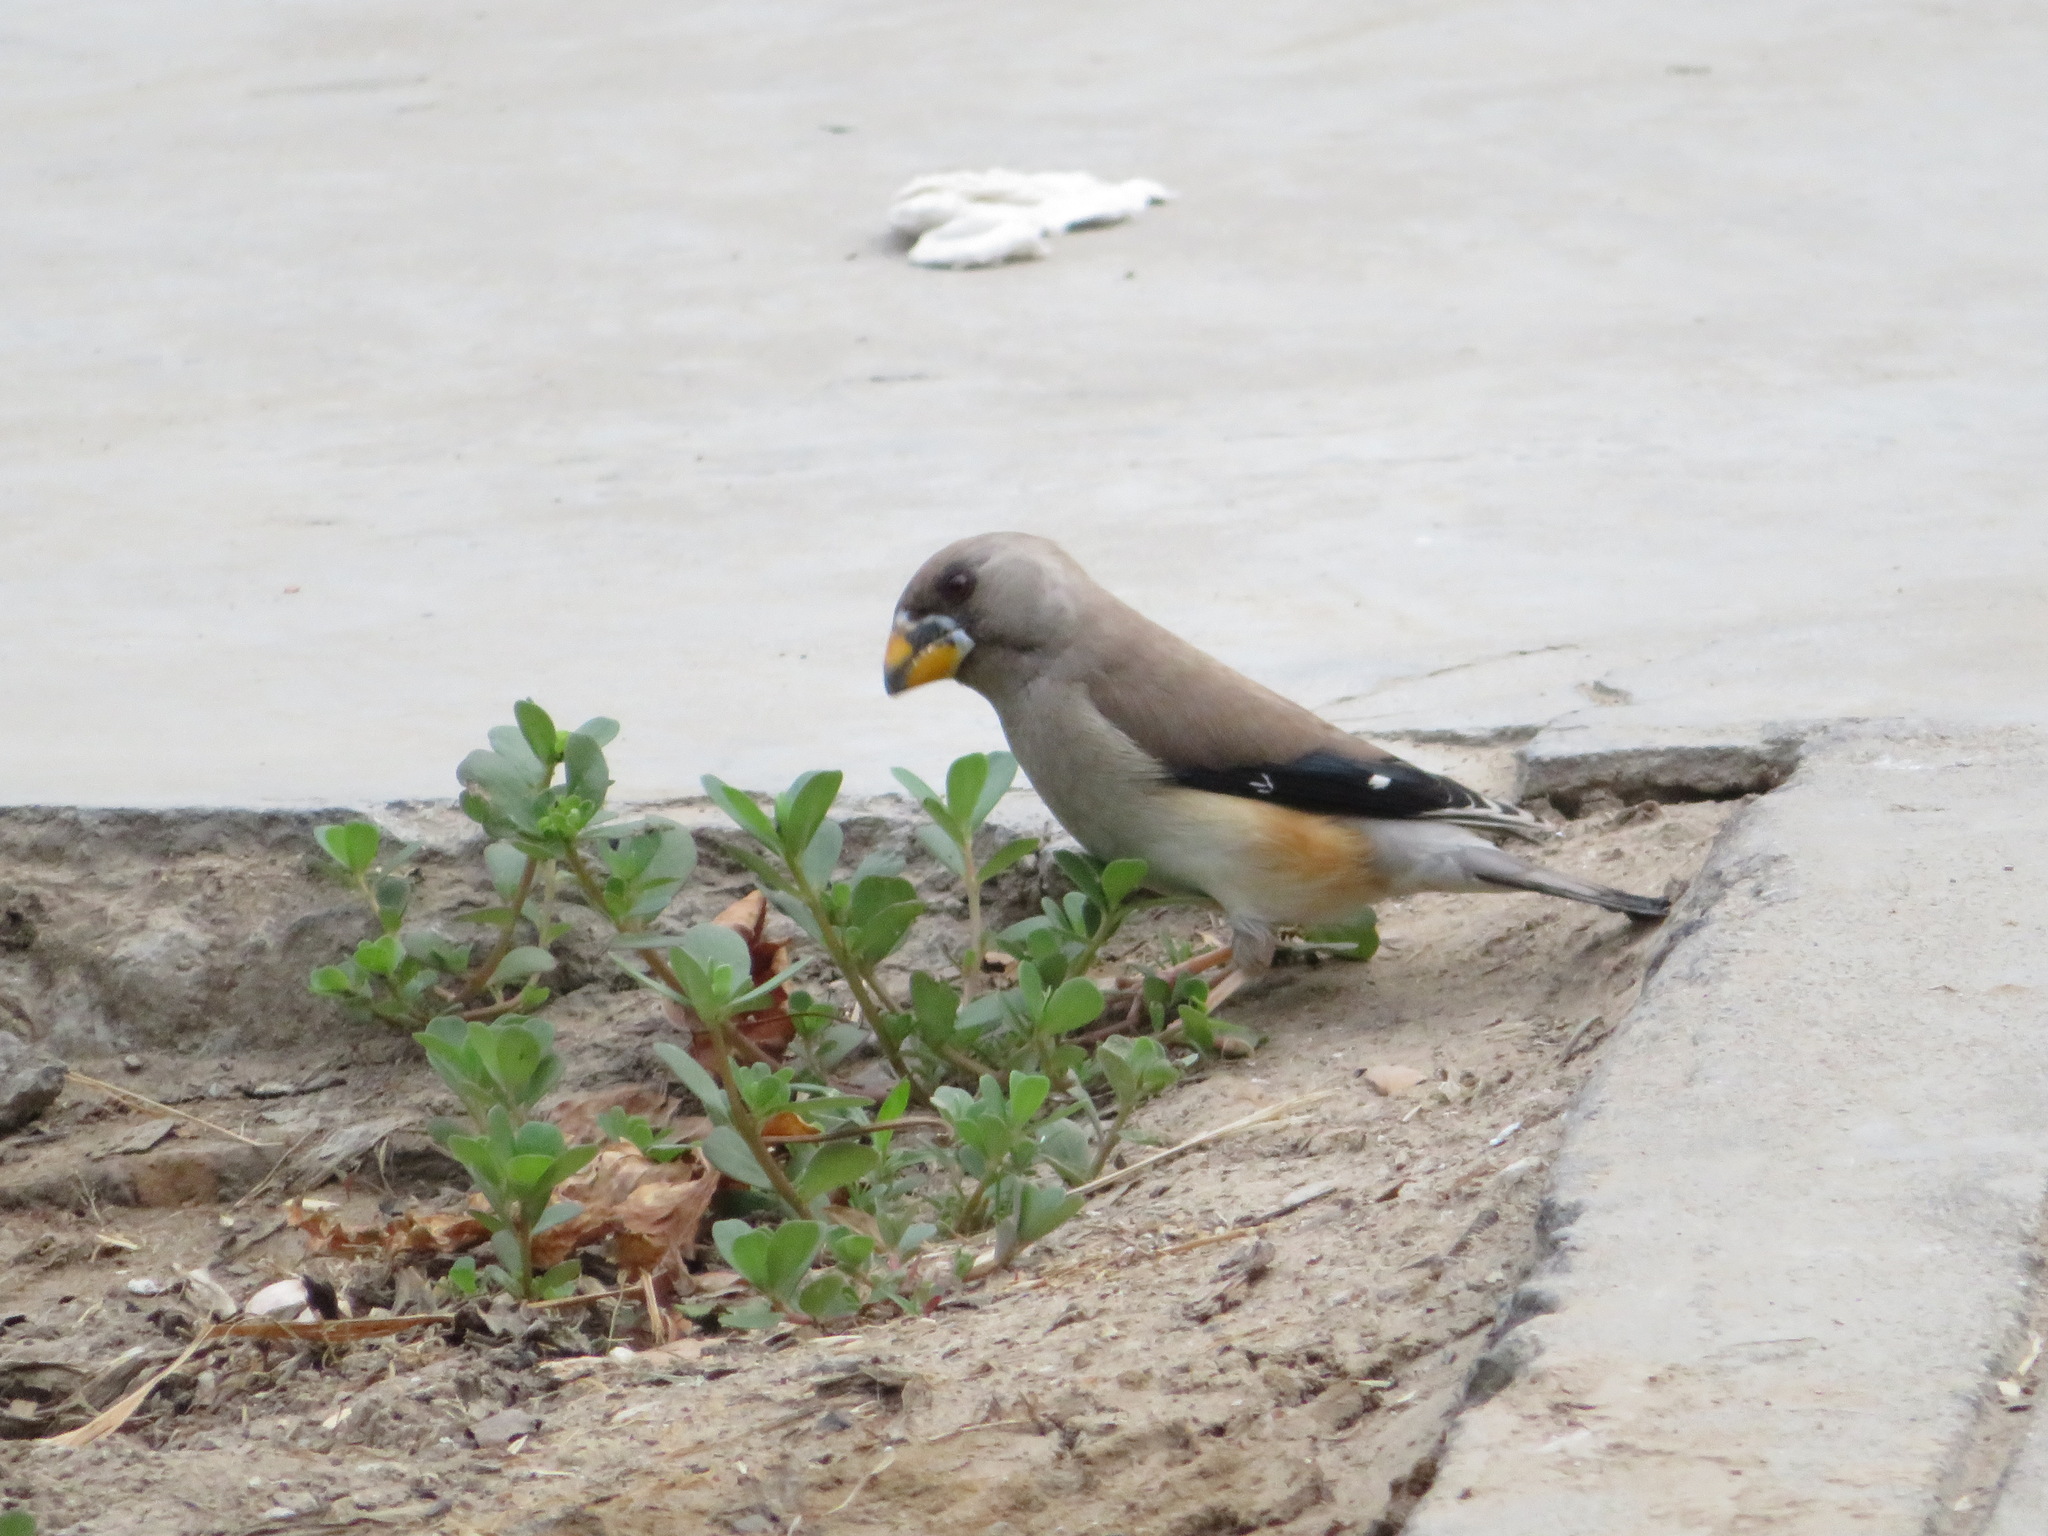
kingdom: Animalia
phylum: Chordata
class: Aves
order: Passeriformes
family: Fringillidae
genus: Eophona
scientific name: Eophona migratoria
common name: Yellow-billed grosbeak
